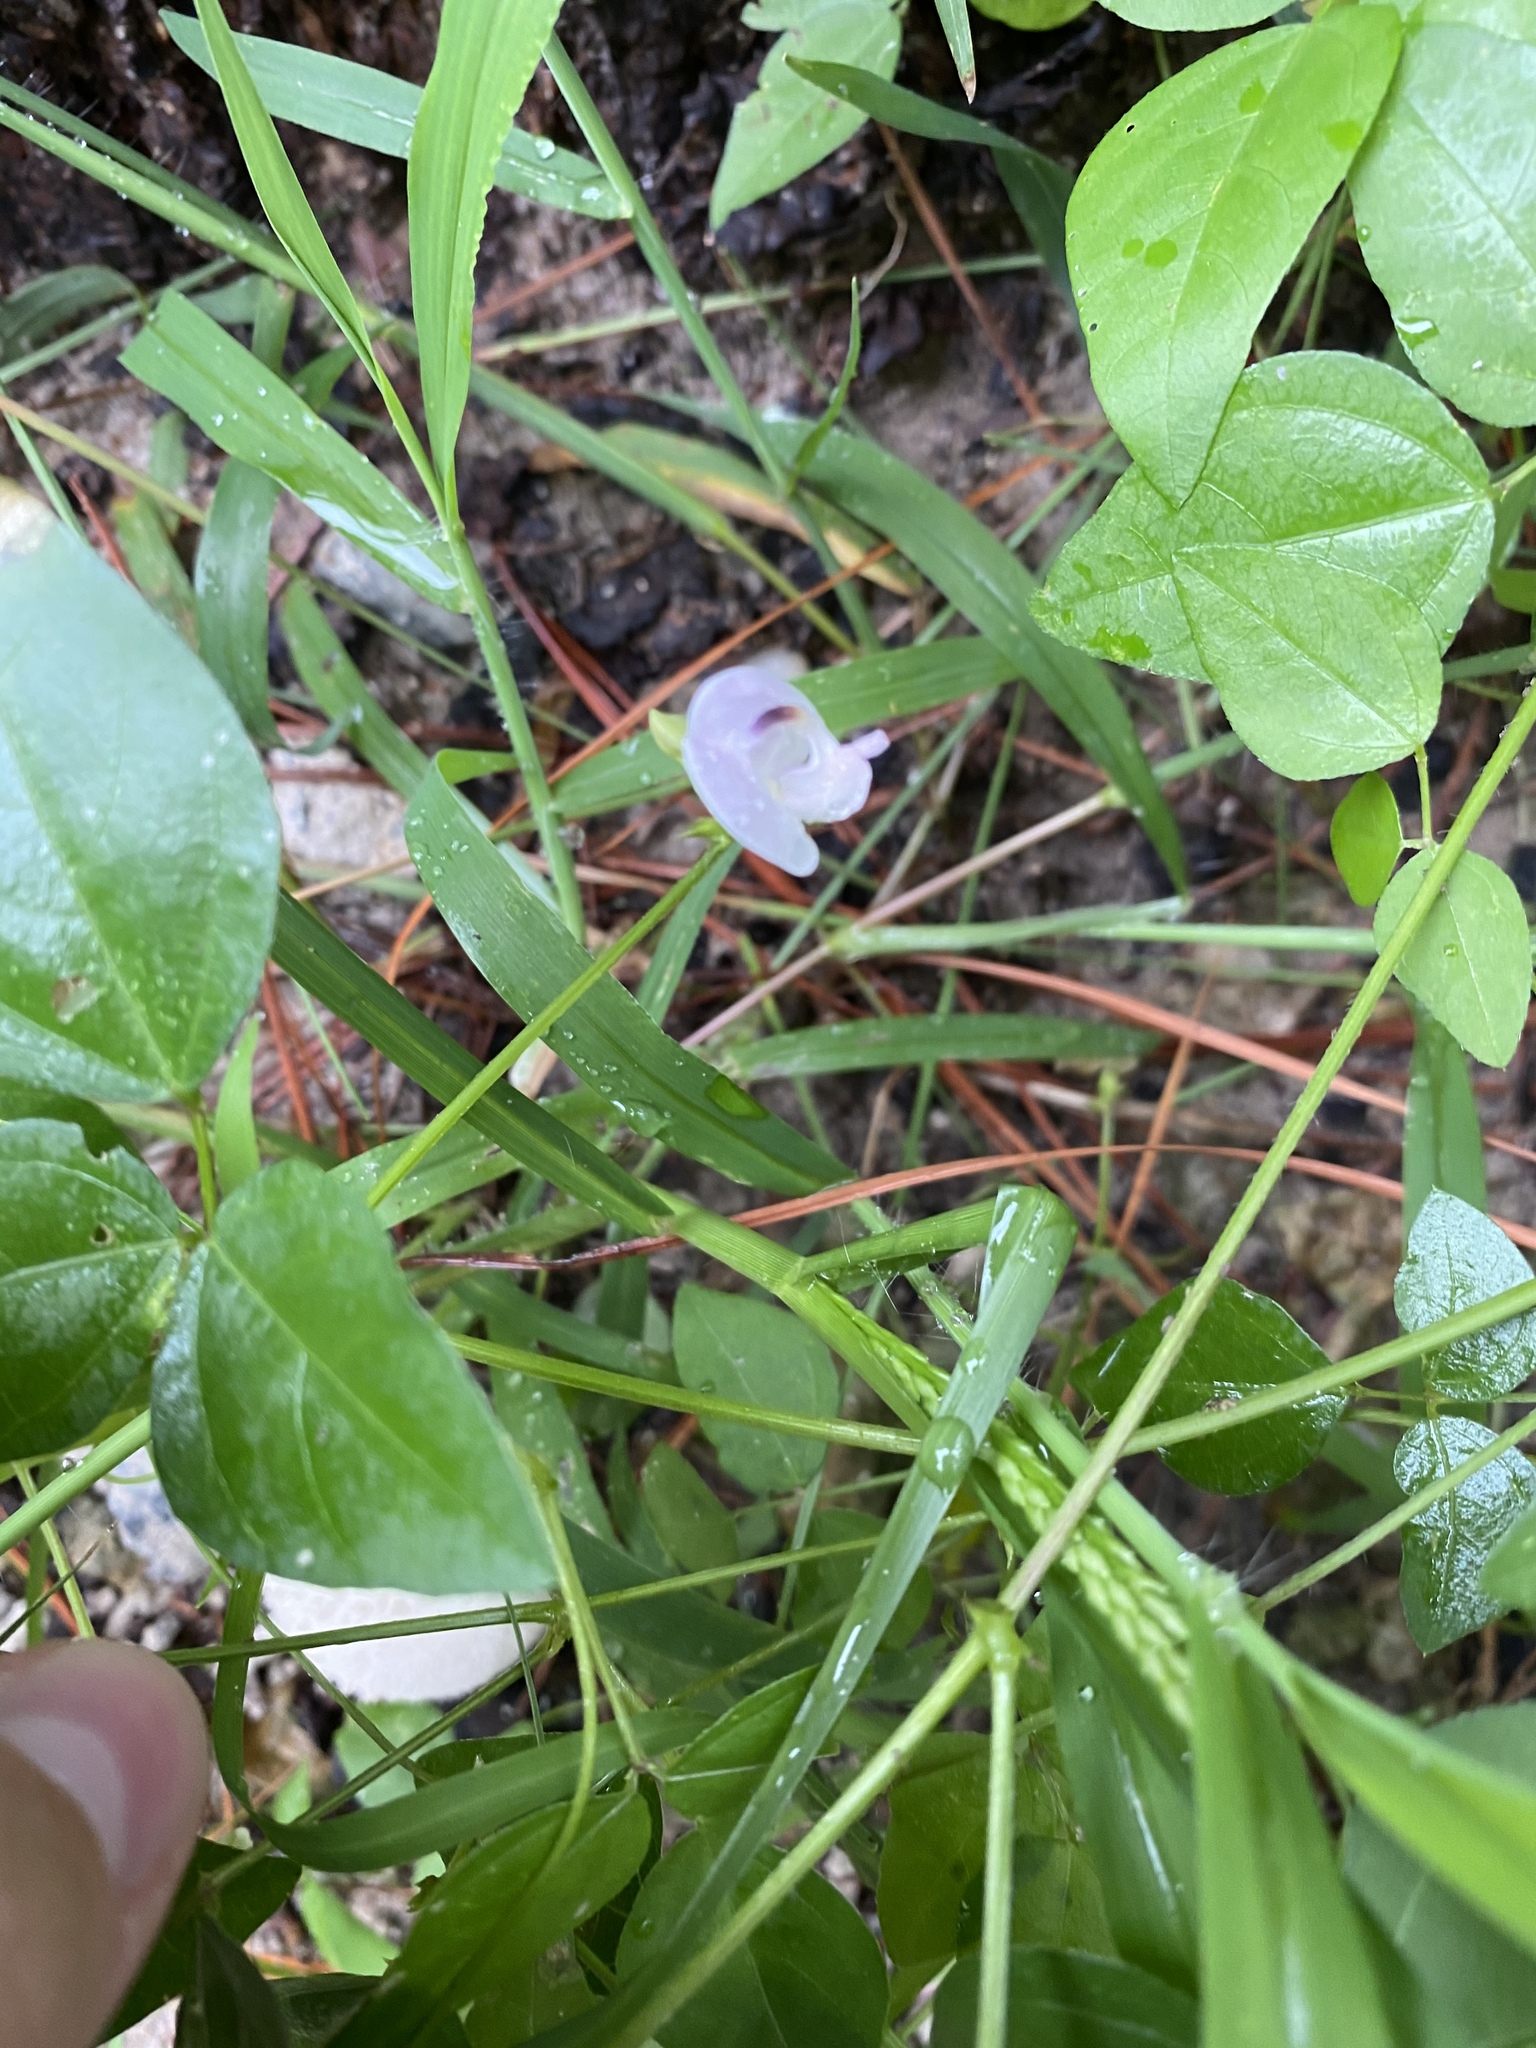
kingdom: Plantae
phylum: Tracheophyta
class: Magnoliopsida
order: Fabales
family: Fabaceae
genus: Strophostyles
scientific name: Strophostyles helvola
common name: Trailing wild bean
